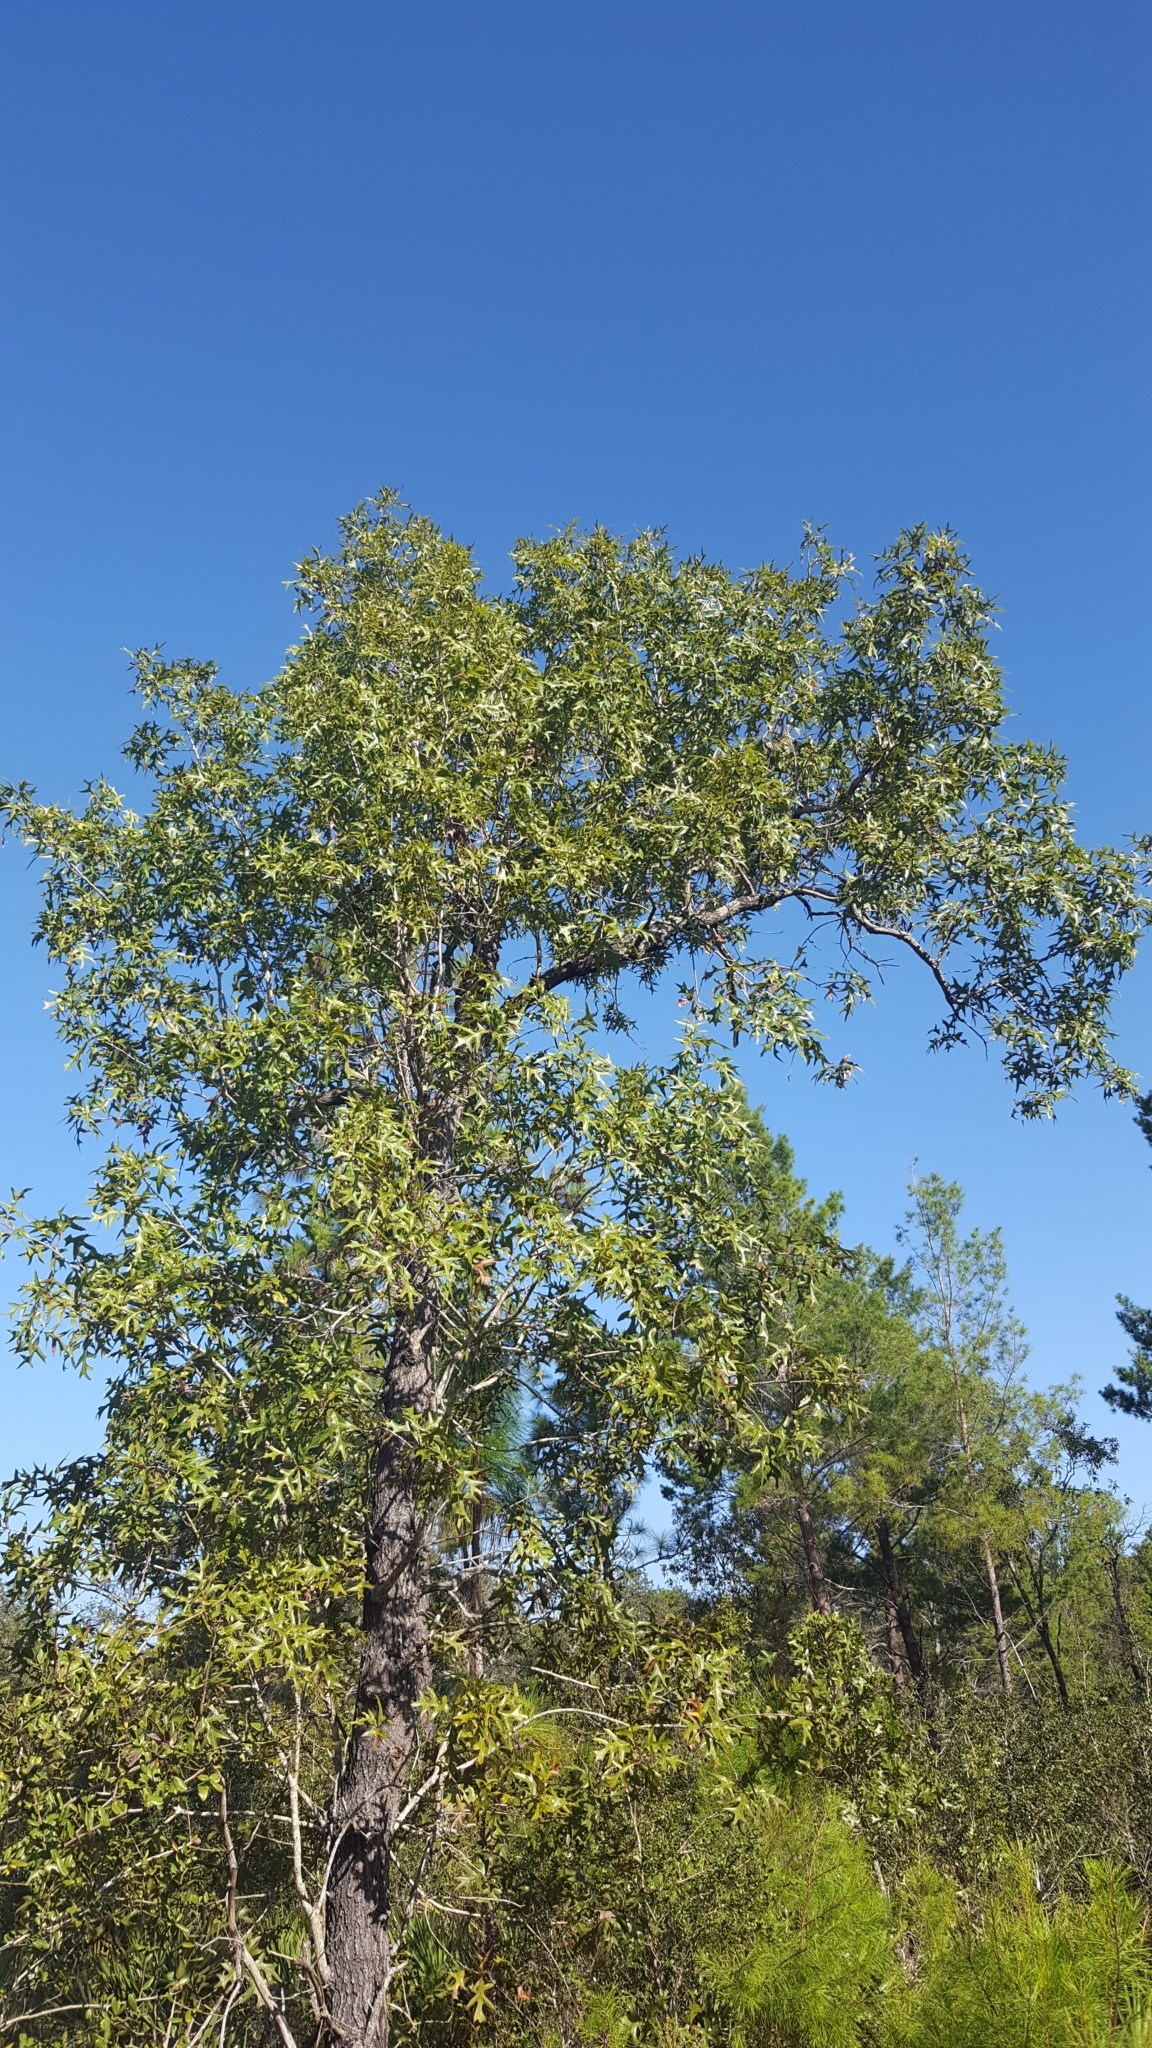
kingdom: Plantae
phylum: Tracheophyta
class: Magnoliopsida
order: Fagales
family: Fagaceae
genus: Quercus
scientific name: Quercus laevis
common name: Turkey oak
